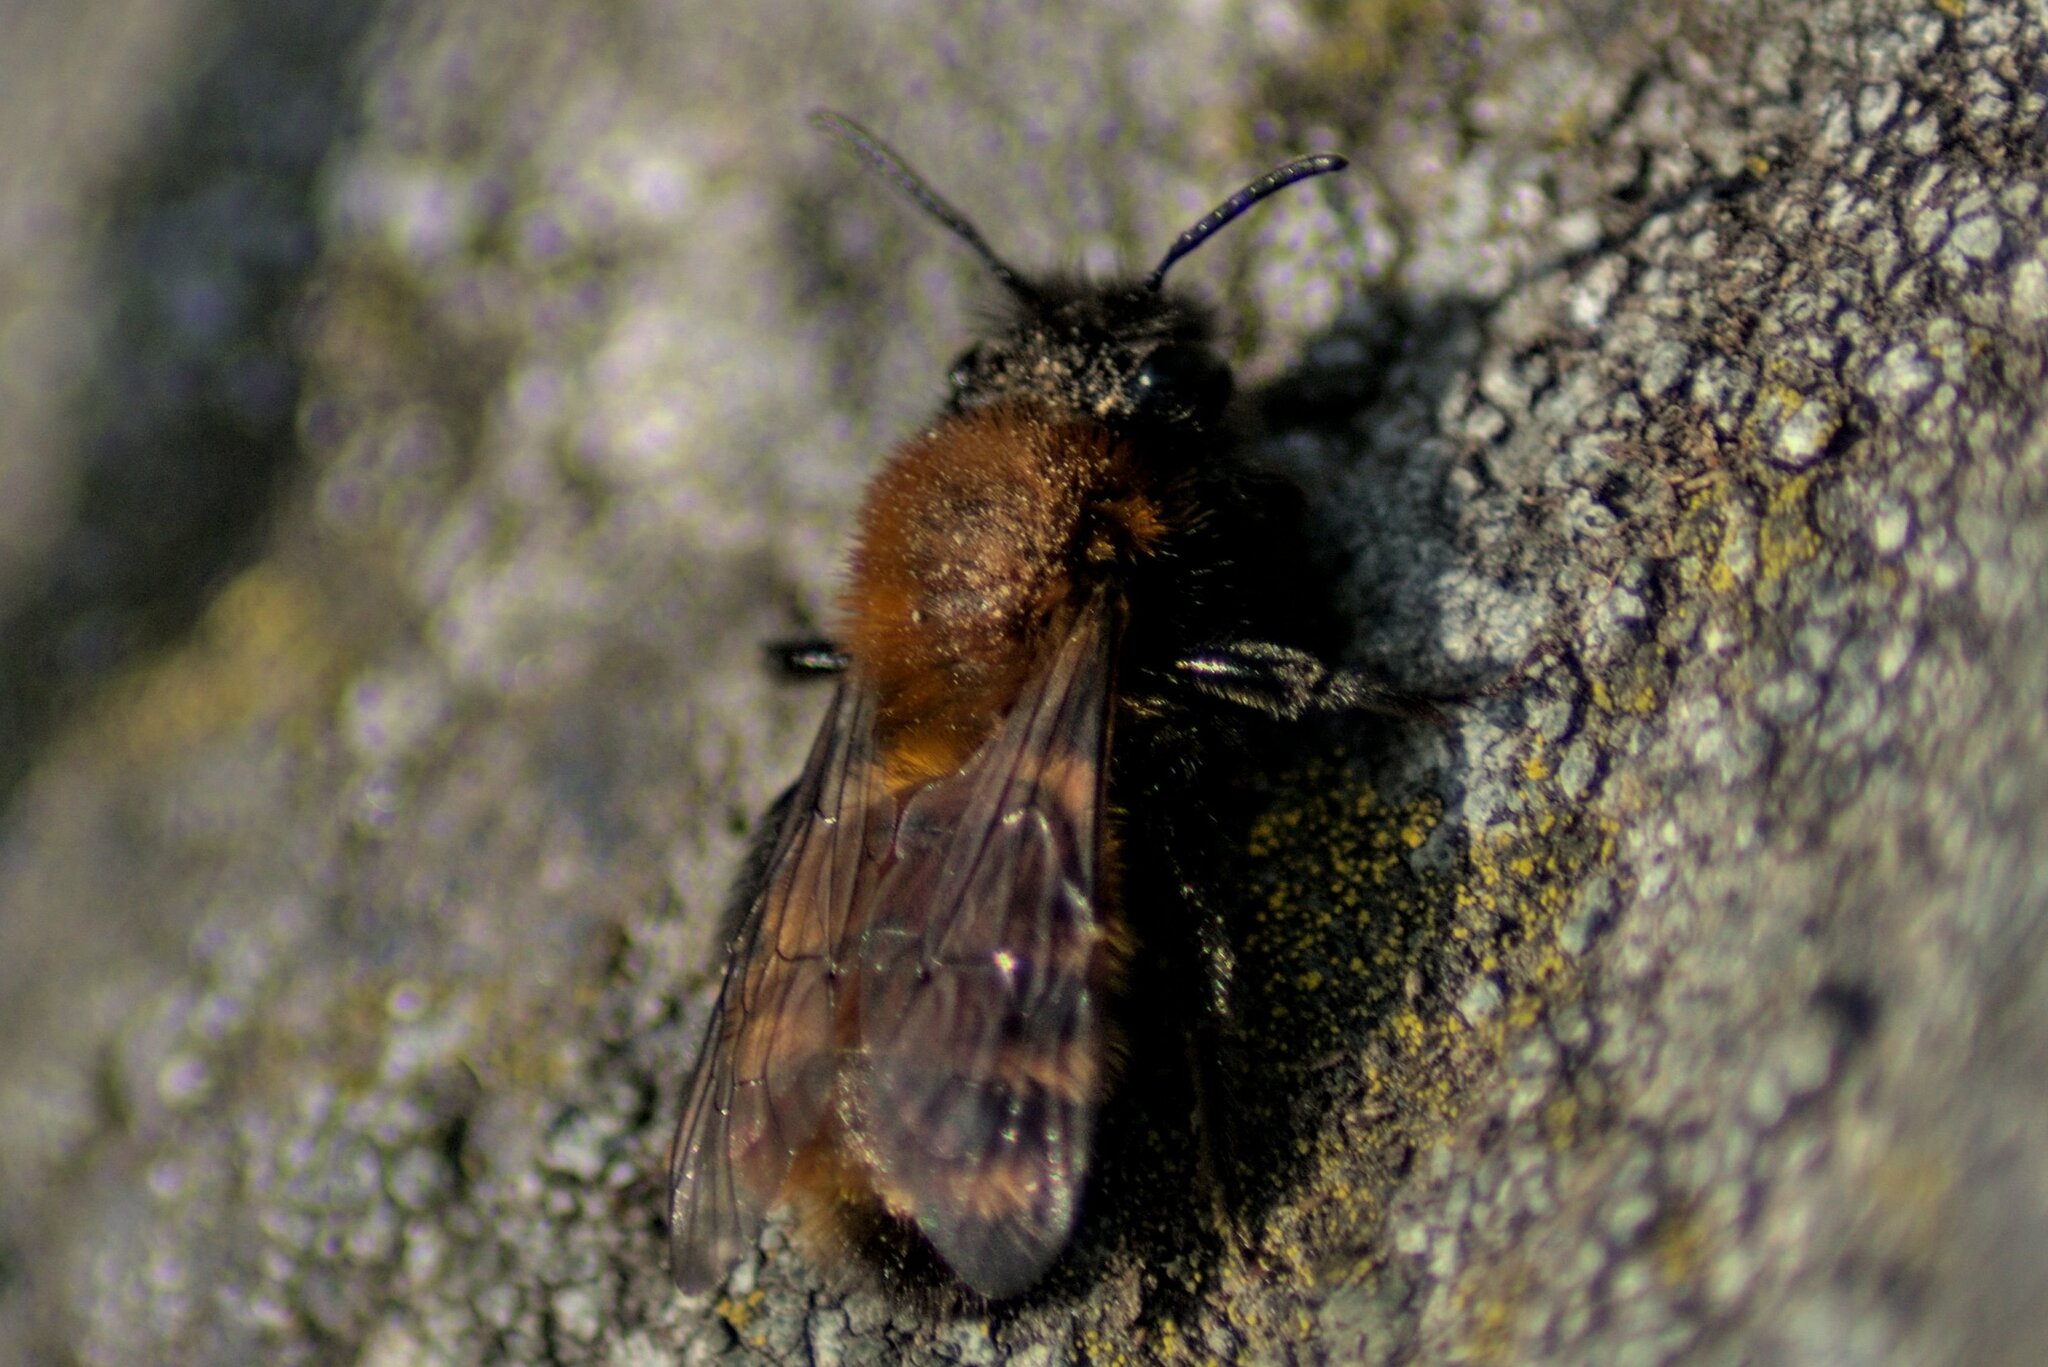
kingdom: Animalia
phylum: Arthropoda
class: Insecta
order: Hymenoptera
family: Andrenidae
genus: Andrena
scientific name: Andrena fulva
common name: Tawny mining bee
